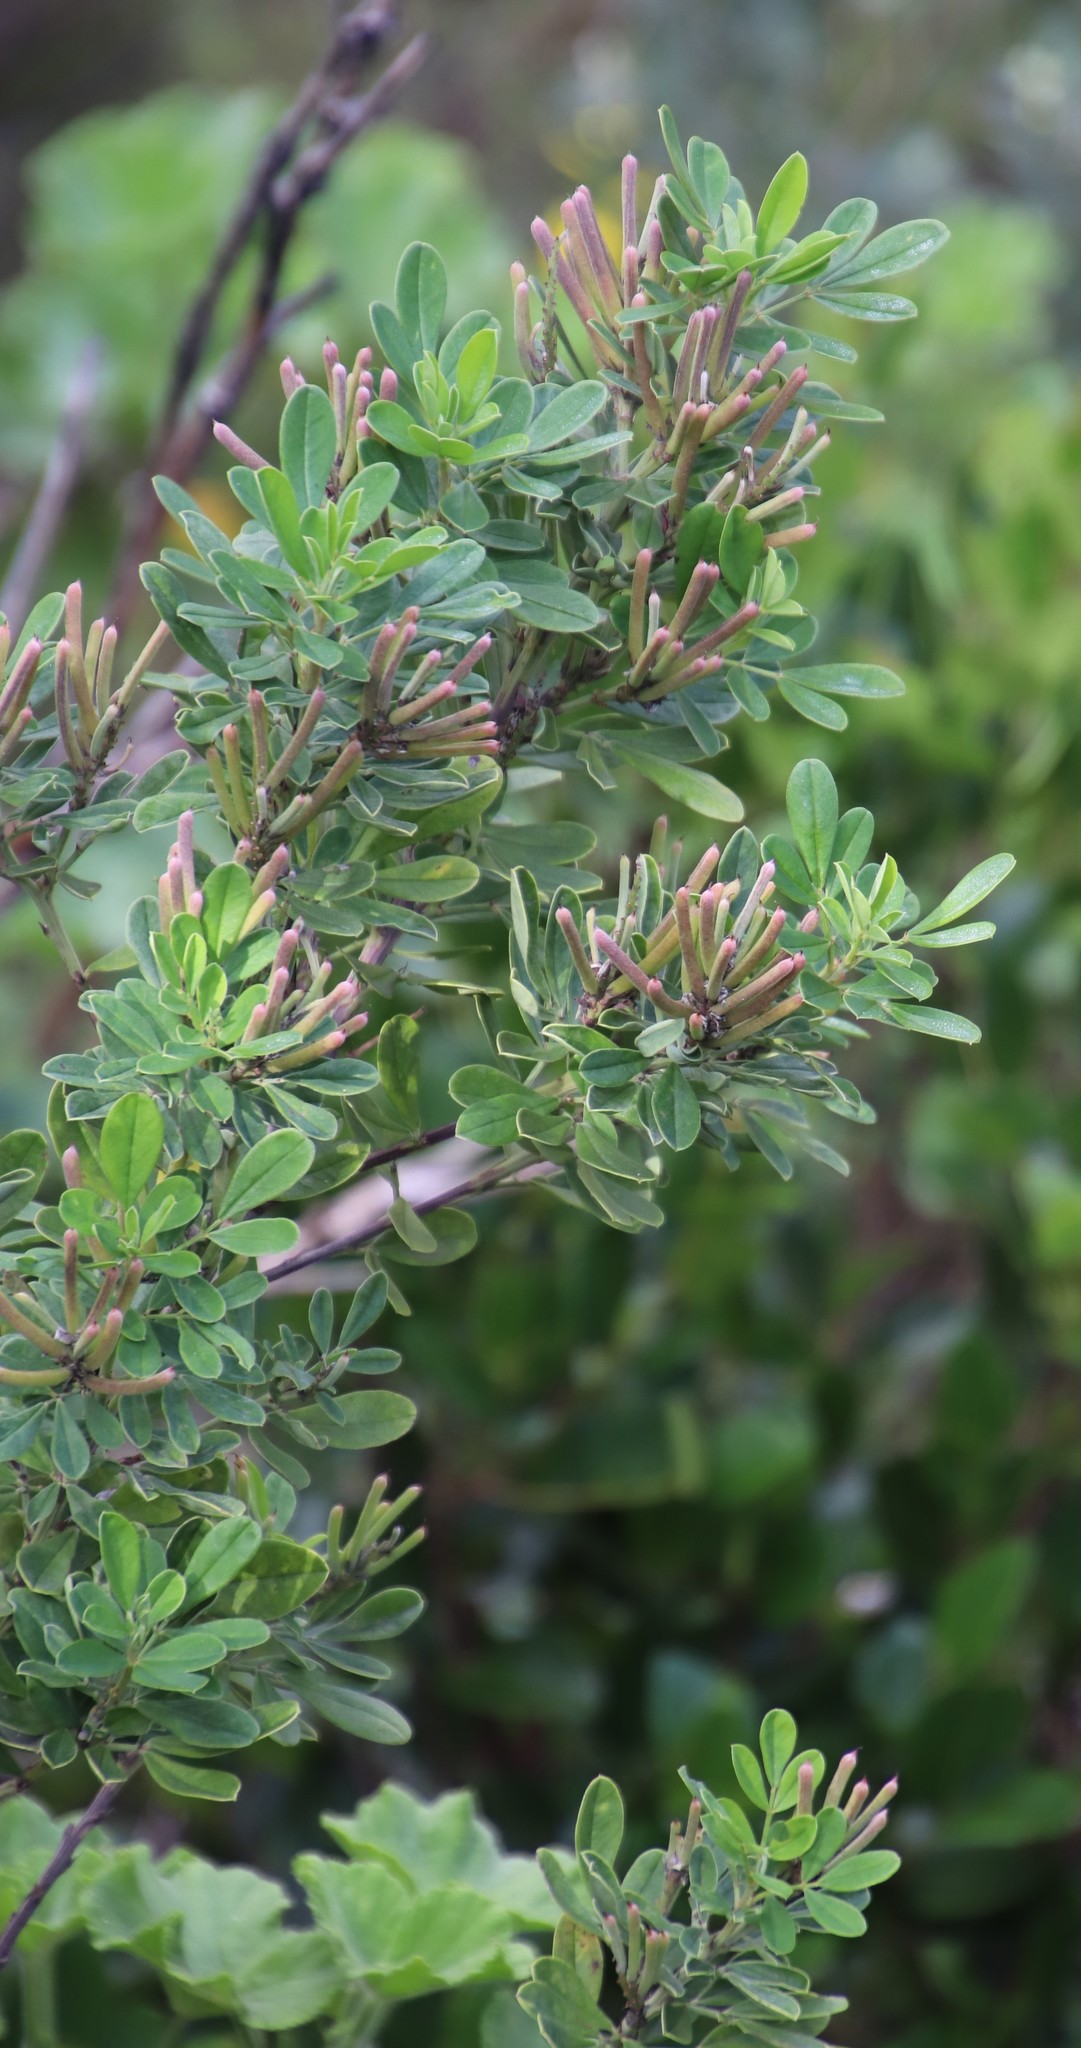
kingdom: Plantae
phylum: Tracheophyta
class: Magnoliopsida
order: Fabales
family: Fabaceae
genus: Indigofera
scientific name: Indigofera cytisoides
